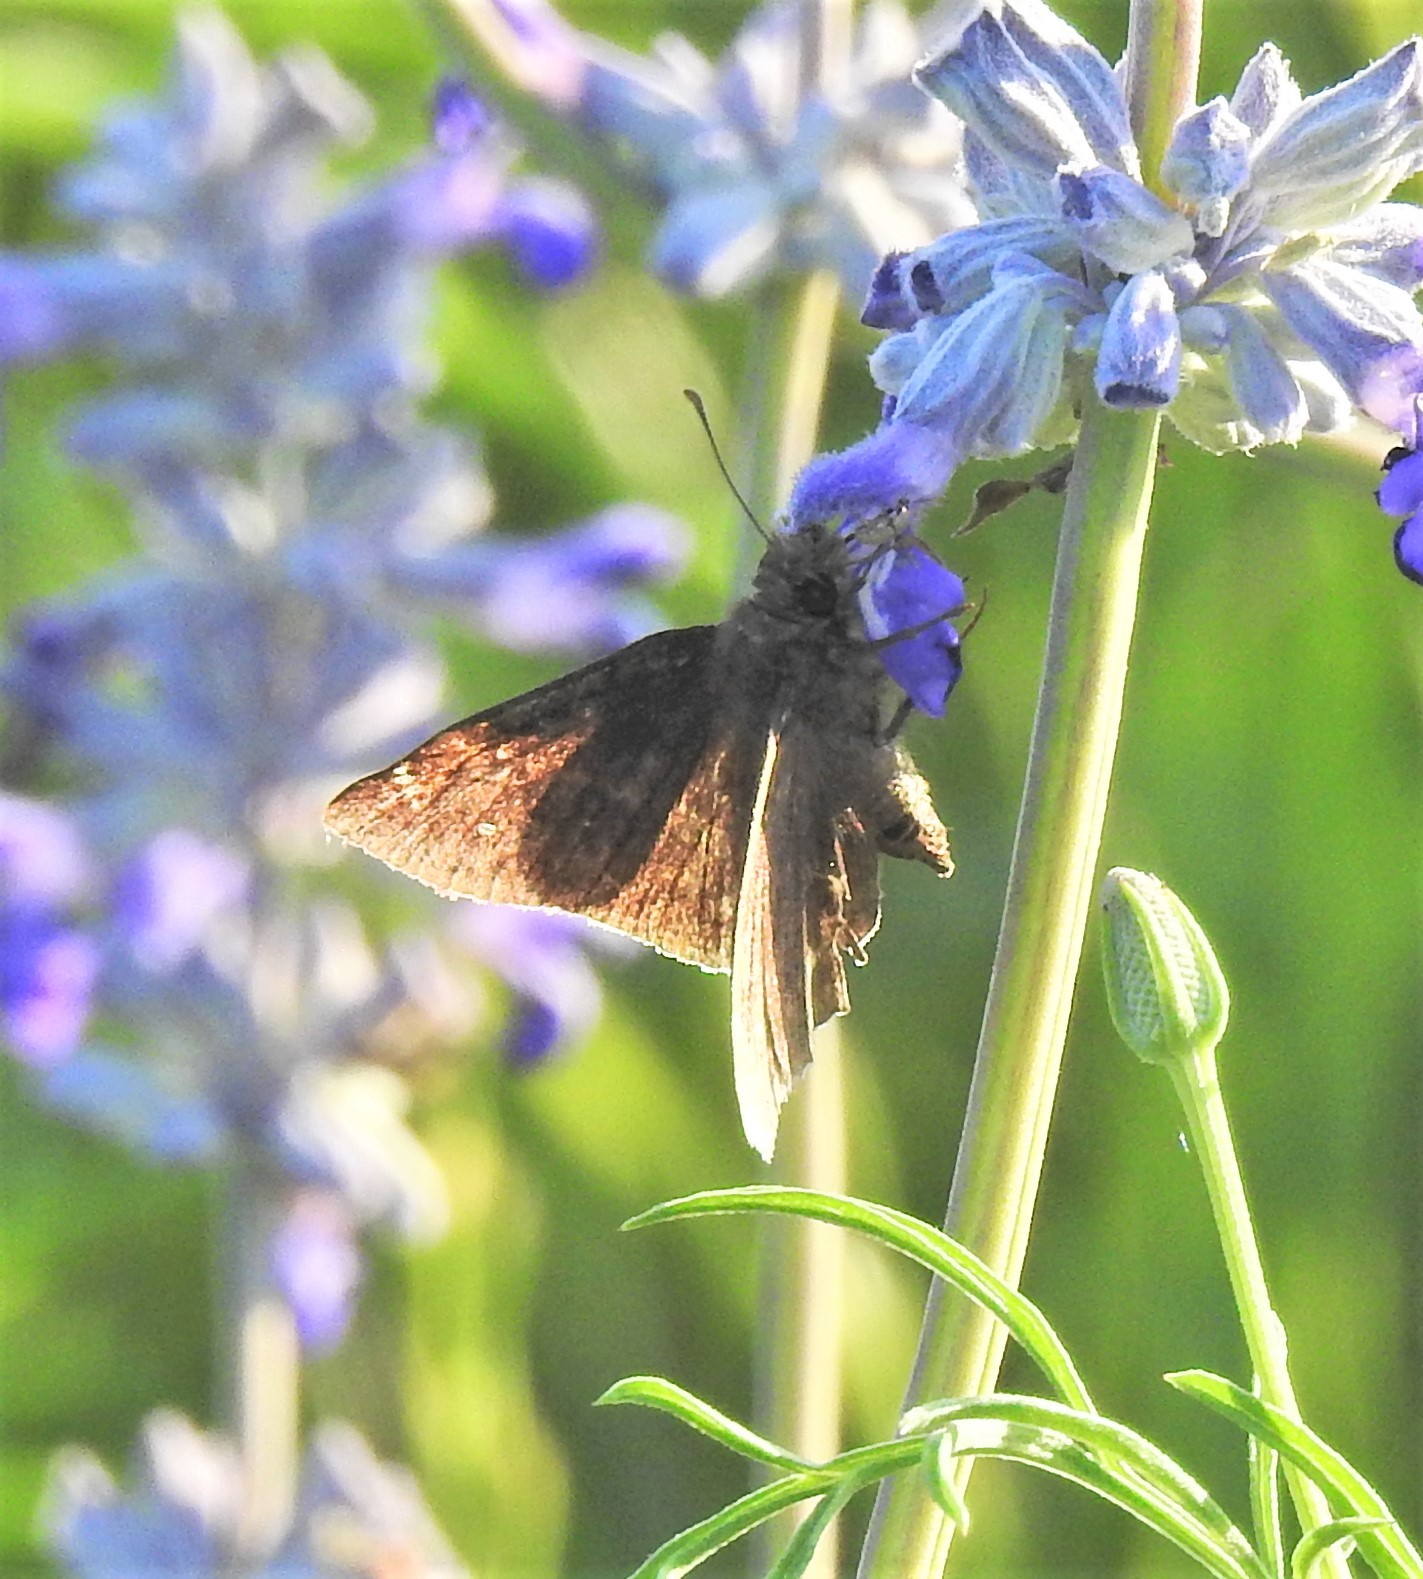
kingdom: Animalia
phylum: Arthropoda
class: Insecta
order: Lepidoptera
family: Hesperiidae
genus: Thorybes
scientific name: Thorybes pylades
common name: Northern cloudywing
